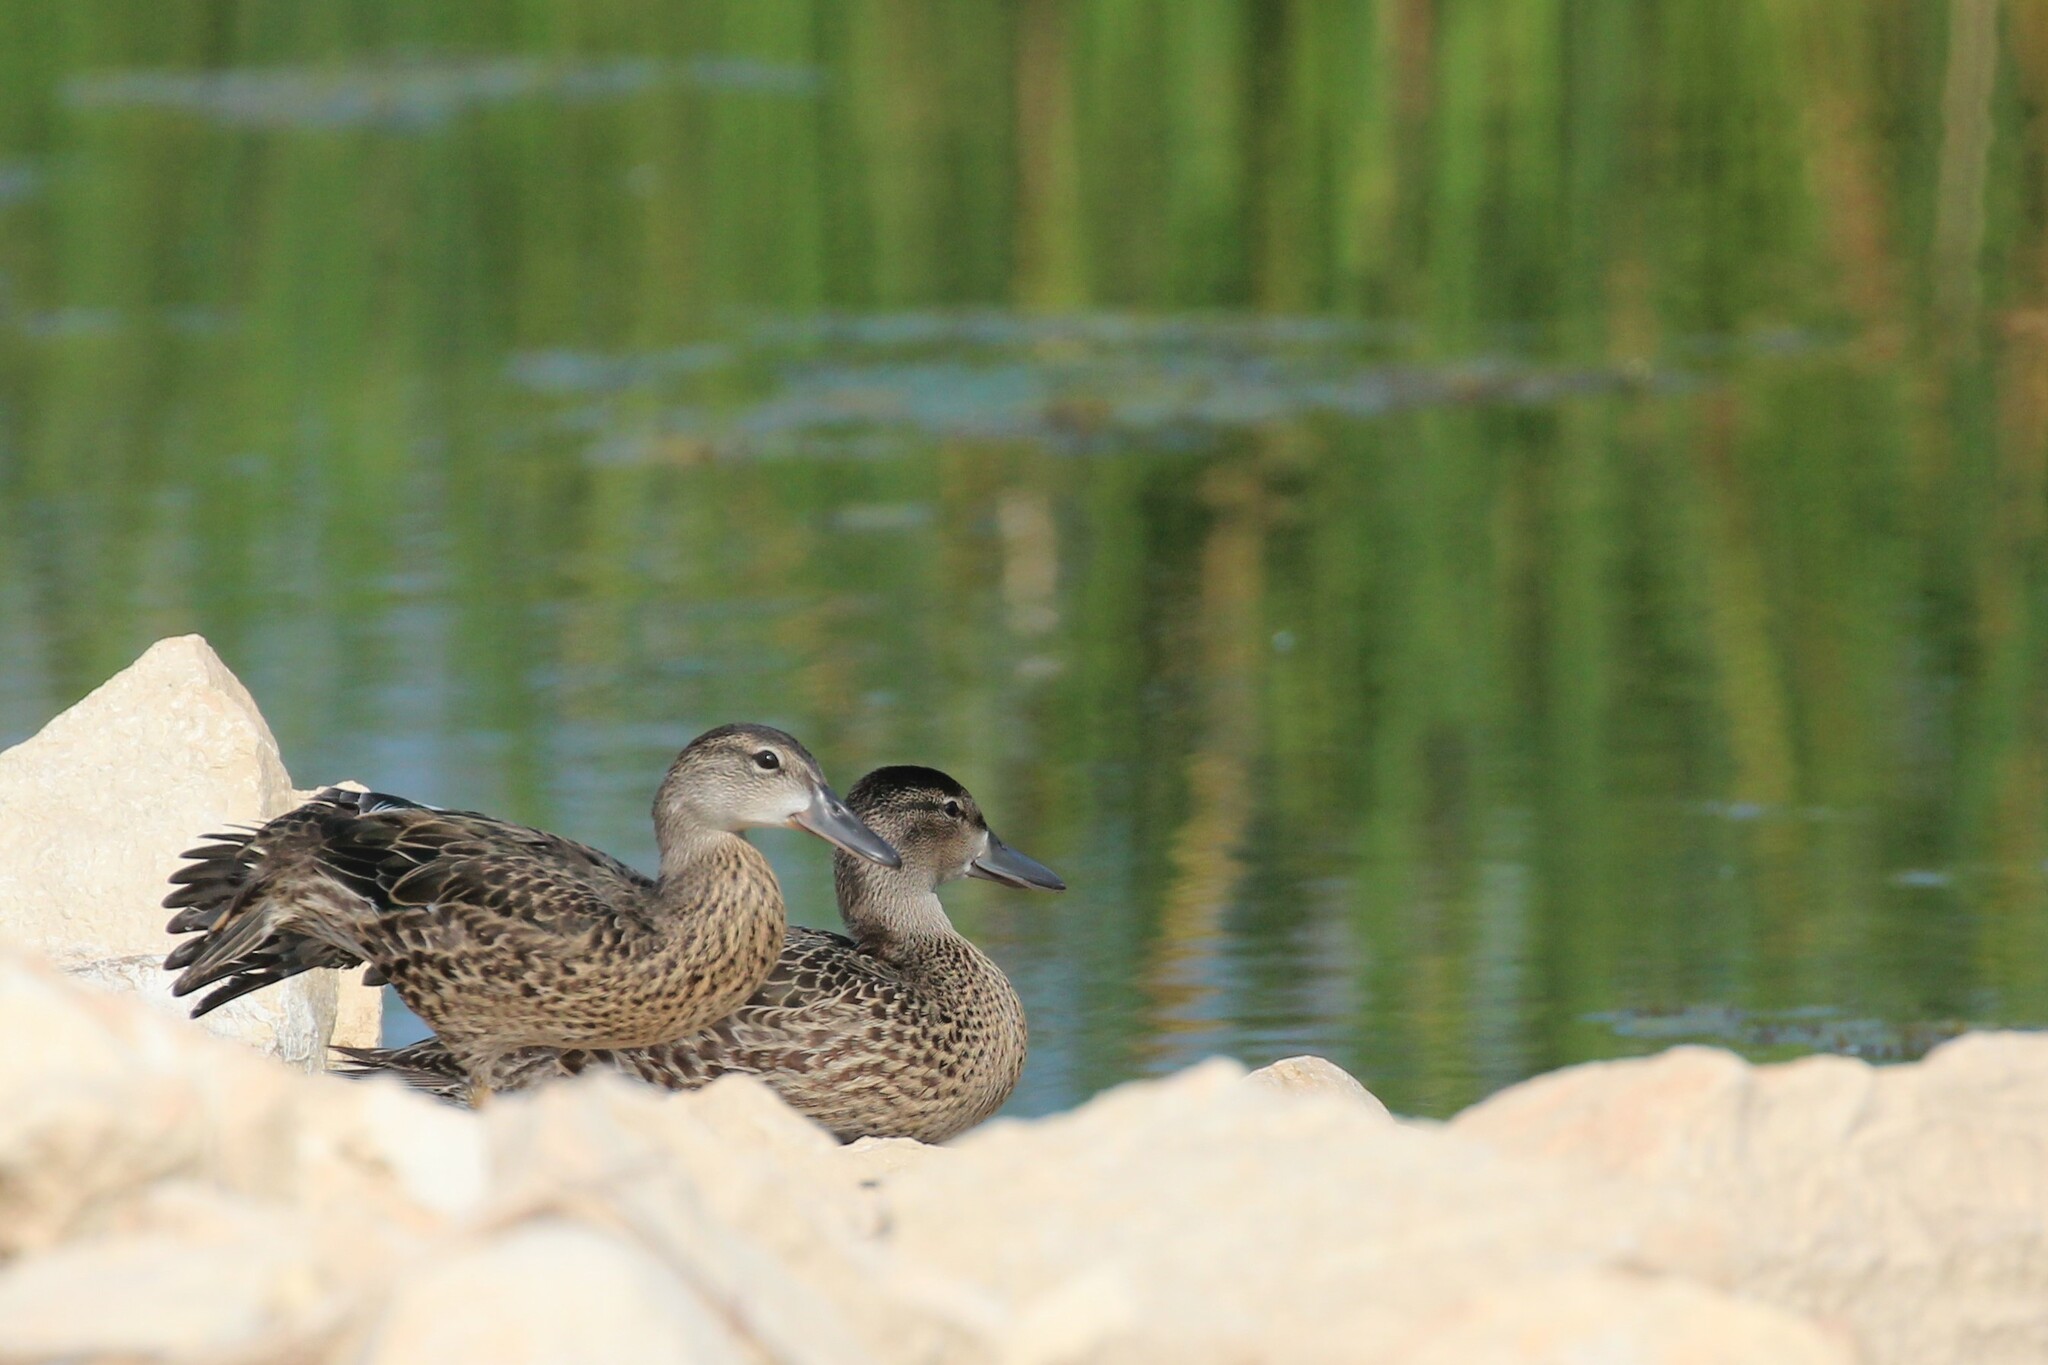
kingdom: Animalia
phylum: Chordata
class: Aves
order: Anseriformes
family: Anatidae
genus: Spatula
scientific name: Spatula discors
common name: Blue-winged teal
